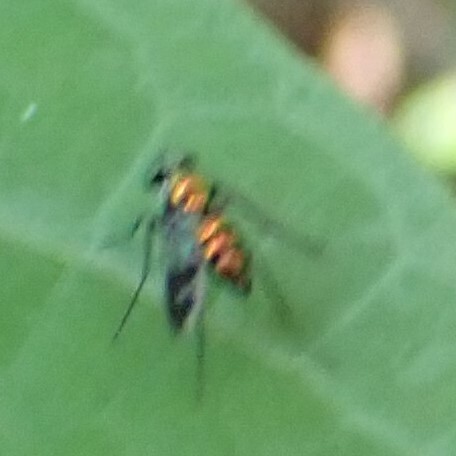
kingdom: Animalia
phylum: Arthropoda
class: Insecta
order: Diptera
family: Dolichopodidae
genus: Condylostylus
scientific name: Condylostylus patibulatus
